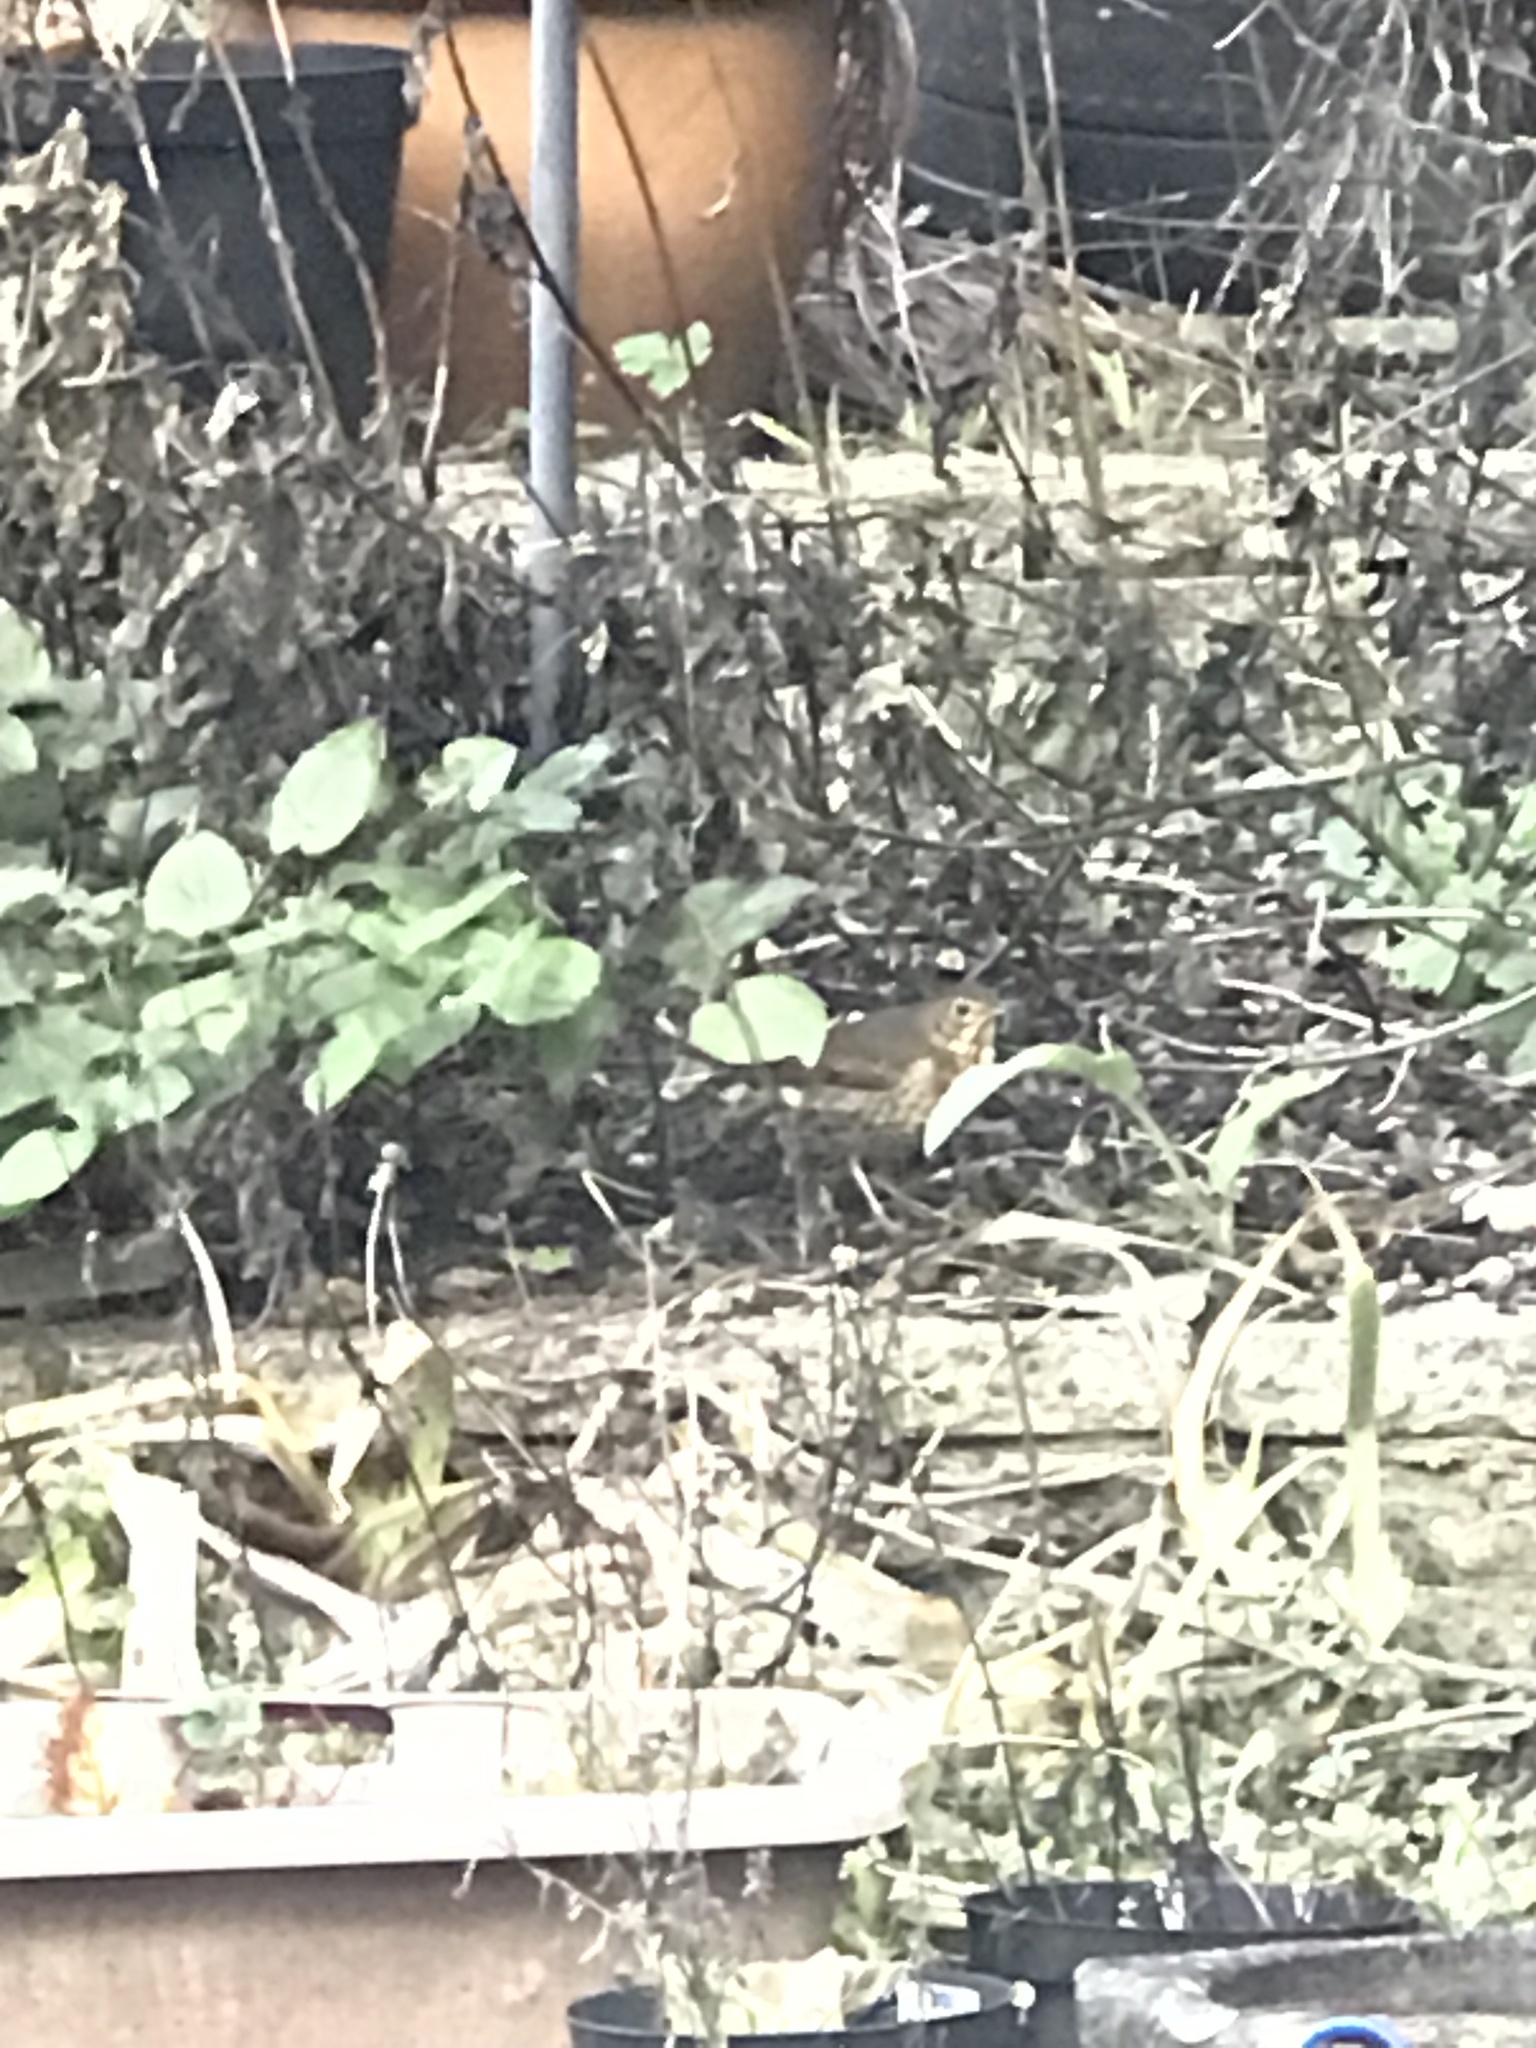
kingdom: Animalia
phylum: Chordata
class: Aves
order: Passeriformes
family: Turdidae
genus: Turdus
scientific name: Turdus philomelos
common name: Song thrush
